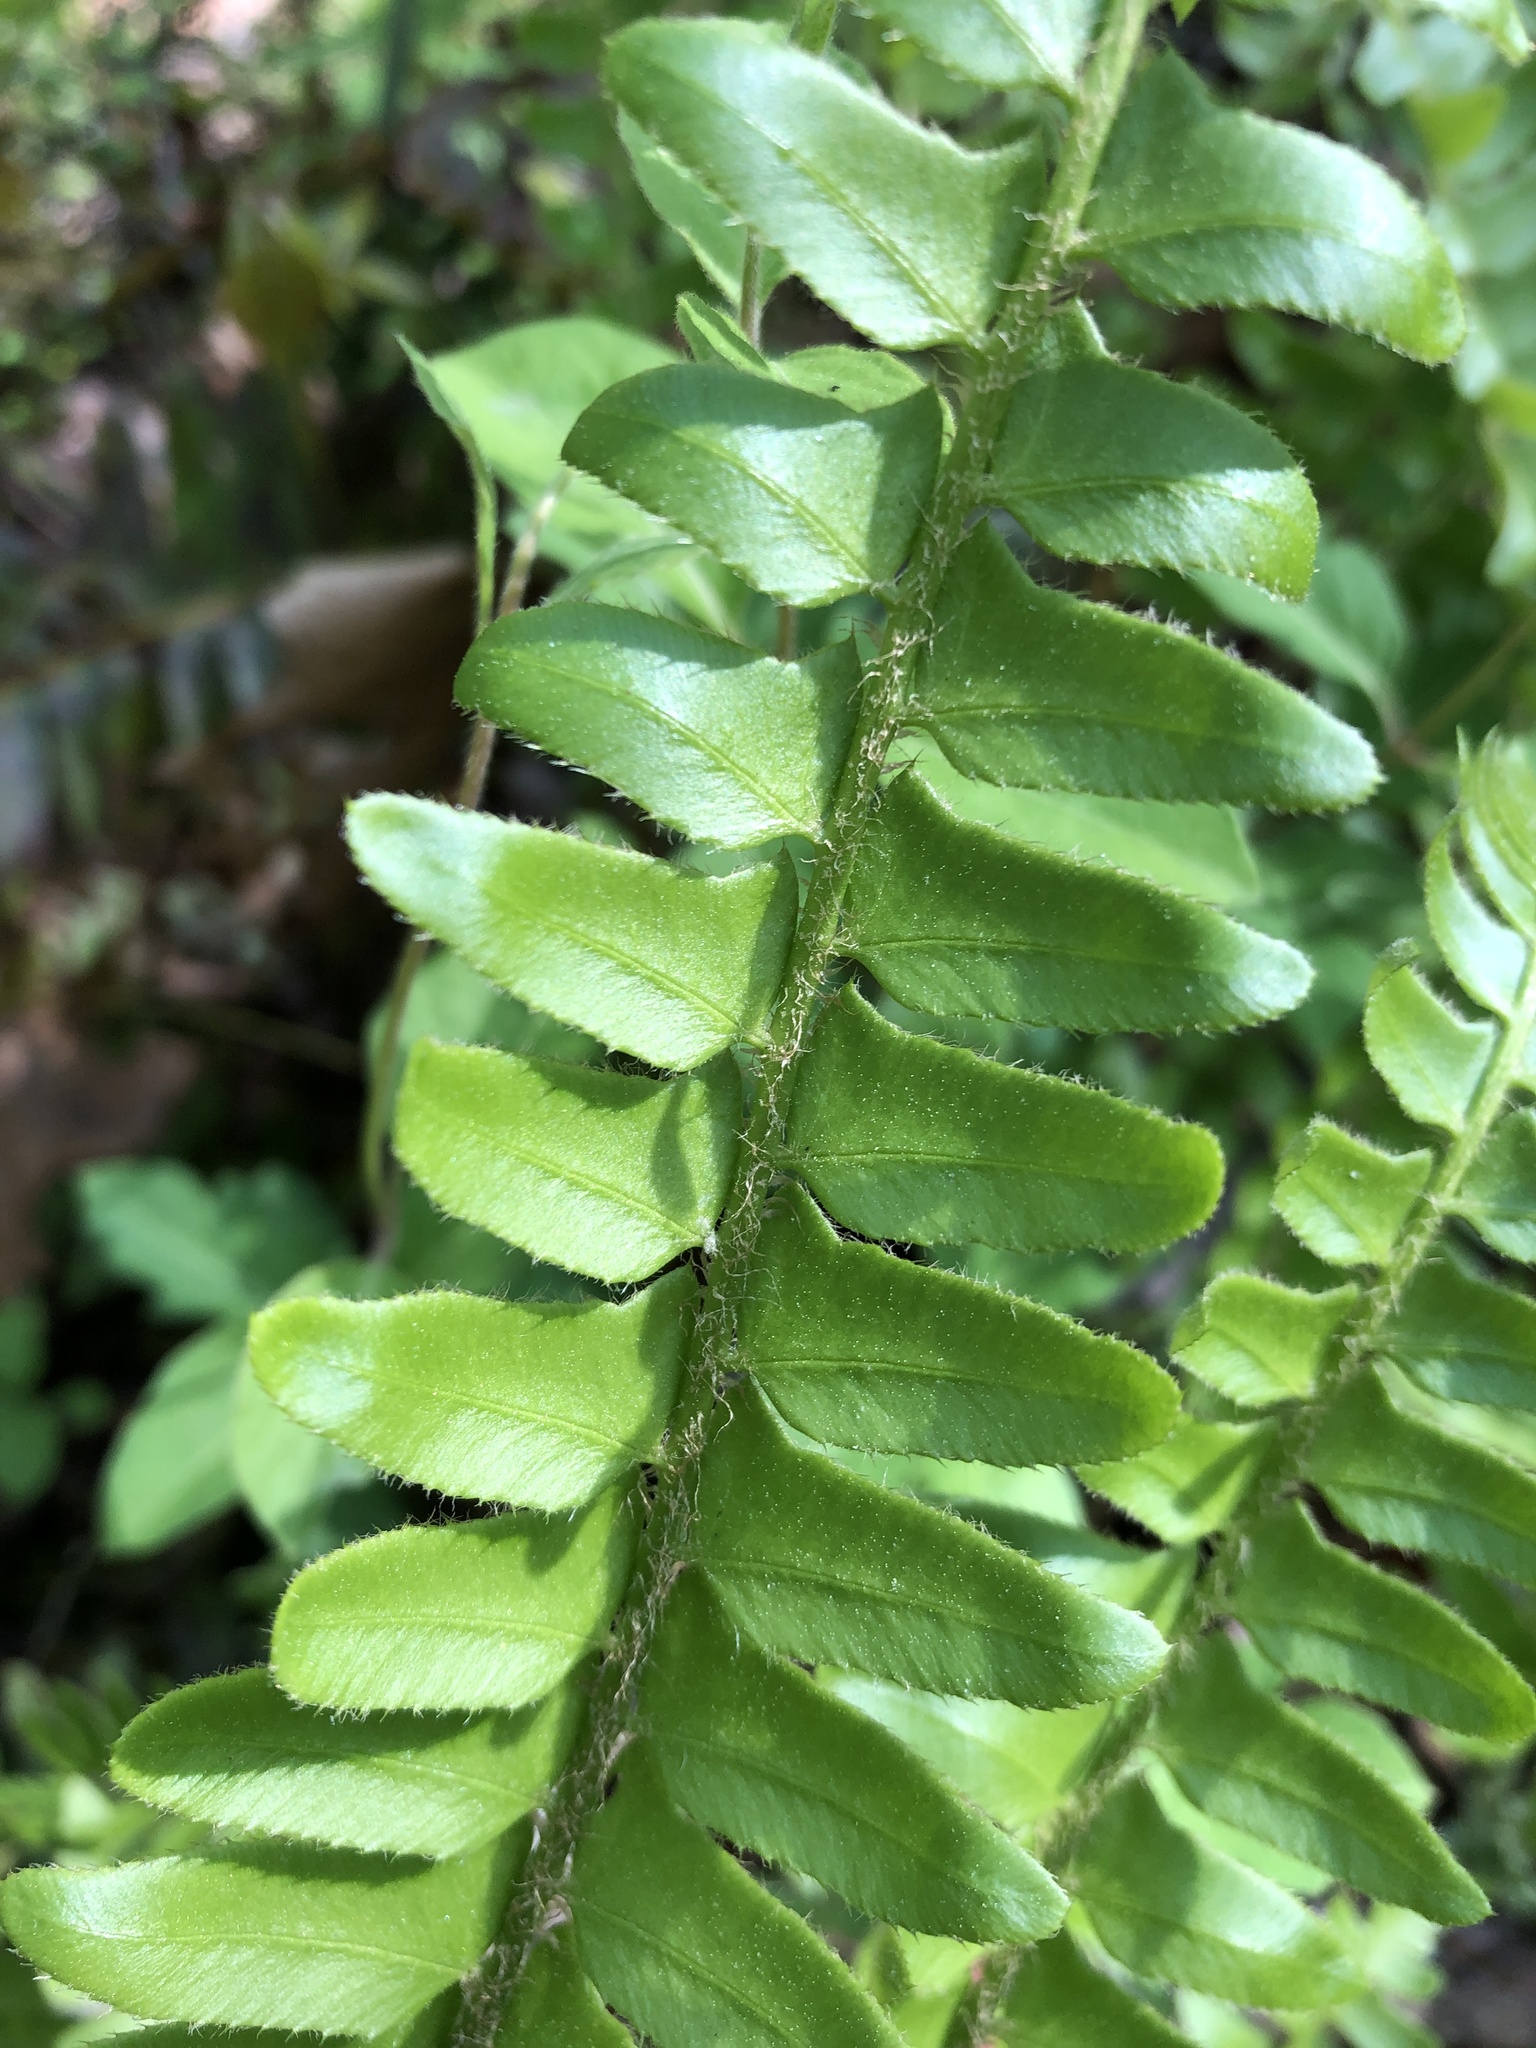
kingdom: Plantae
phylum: Tracheophyta
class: Polypodiopsida
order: Polypodiales
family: Dryopteridaceae
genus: Polystichum
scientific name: Polystichum acrostichoides
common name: Christmas fern
